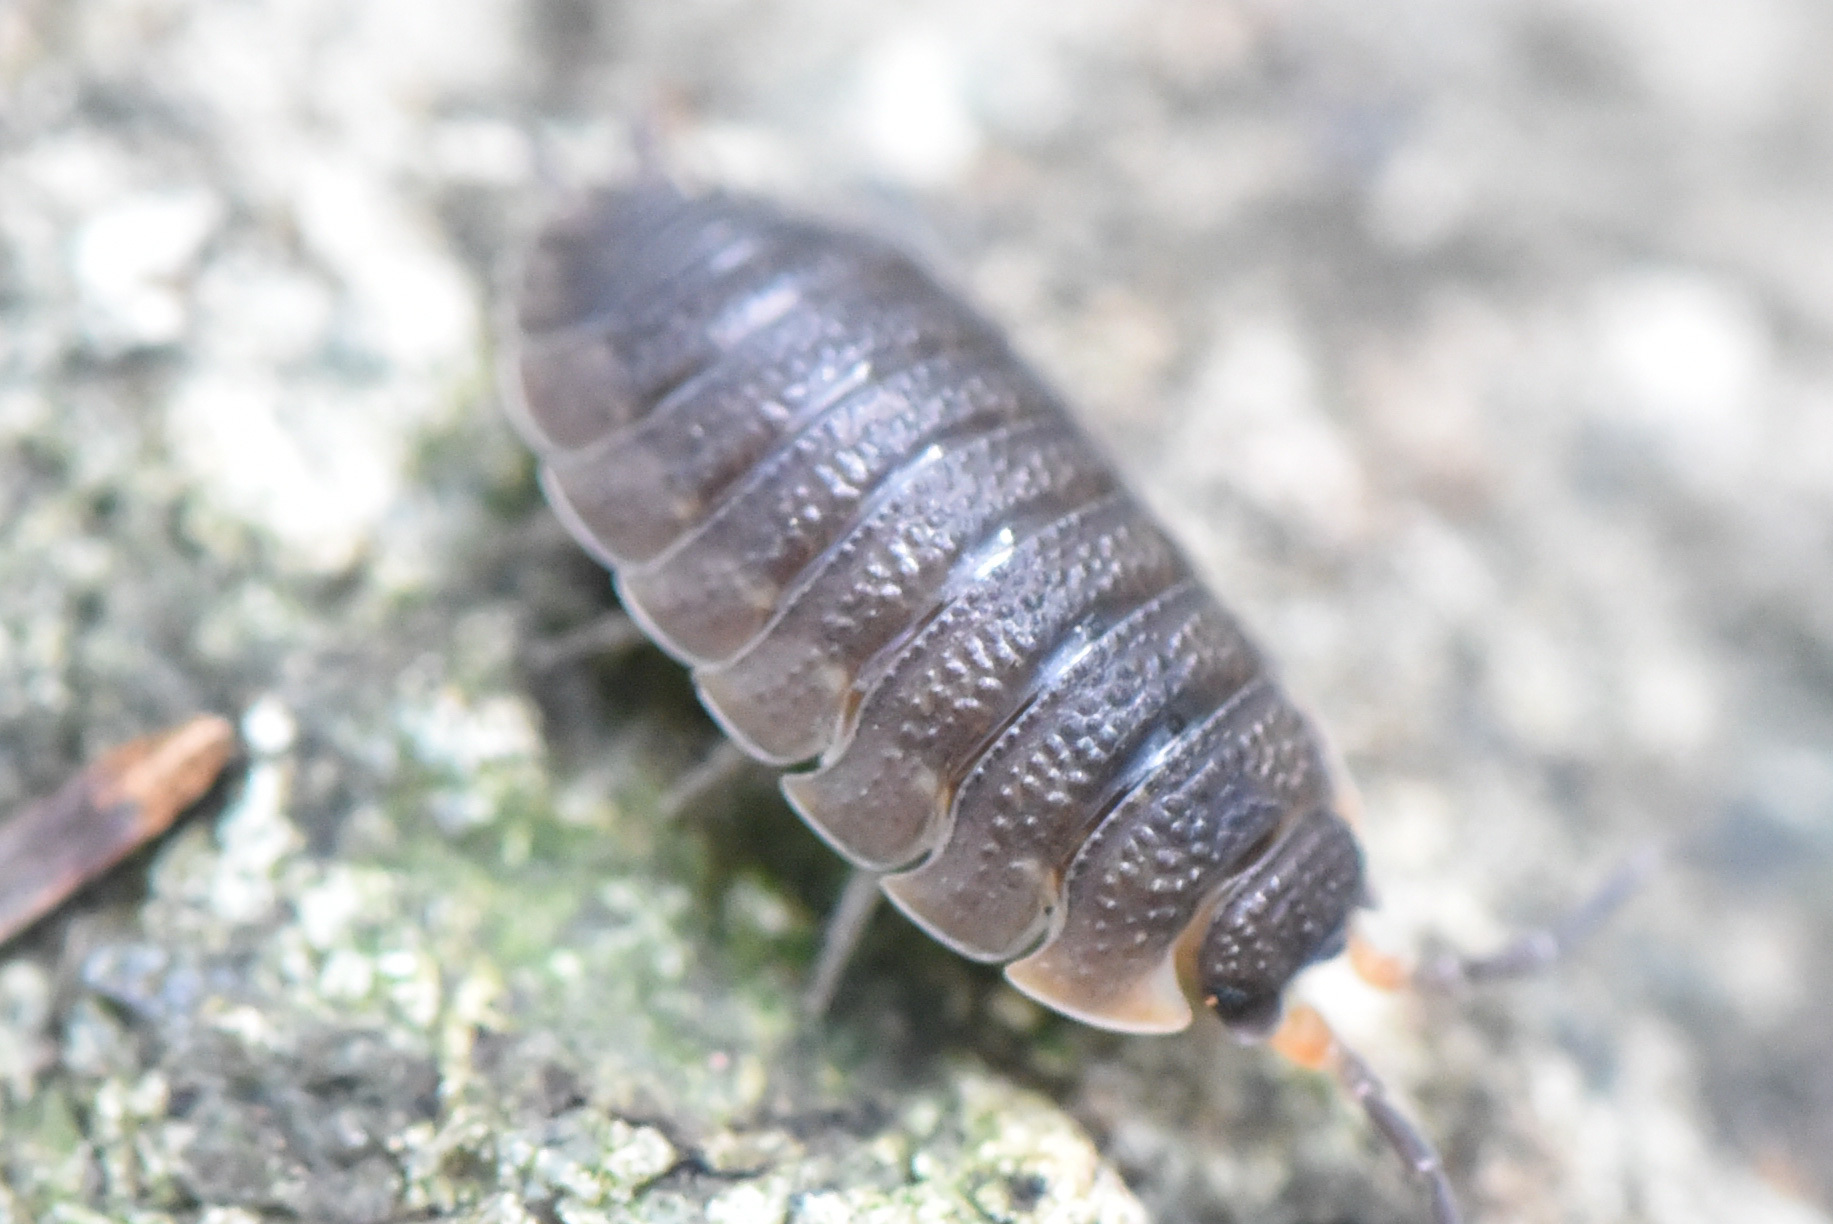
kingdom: Animalia
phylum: Arthropoda
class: Malacostraca
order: Isopoda
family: Porcellionidae
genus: Porcellio
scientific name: Porcellio scaber
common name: Common rough woodlouse
